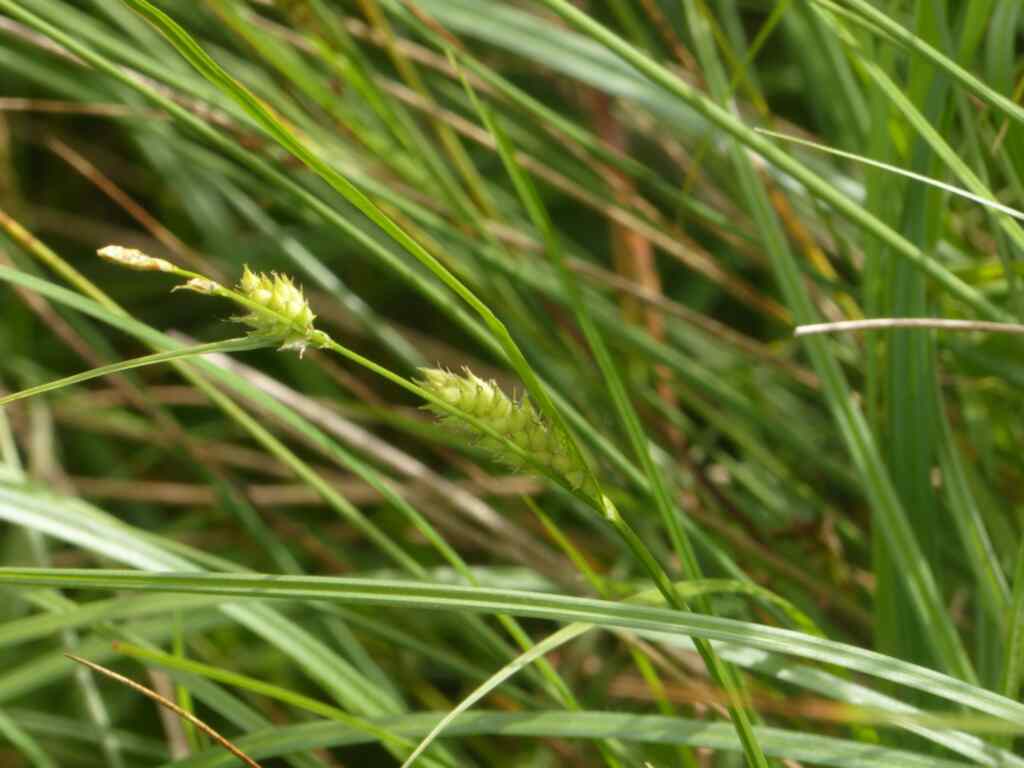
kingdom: Plantae
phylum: Tracheophyta
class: Liliopsida
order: Poales
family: Cyperaceae
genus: Carex
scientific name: Carex hirta
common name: Hairy sedge
